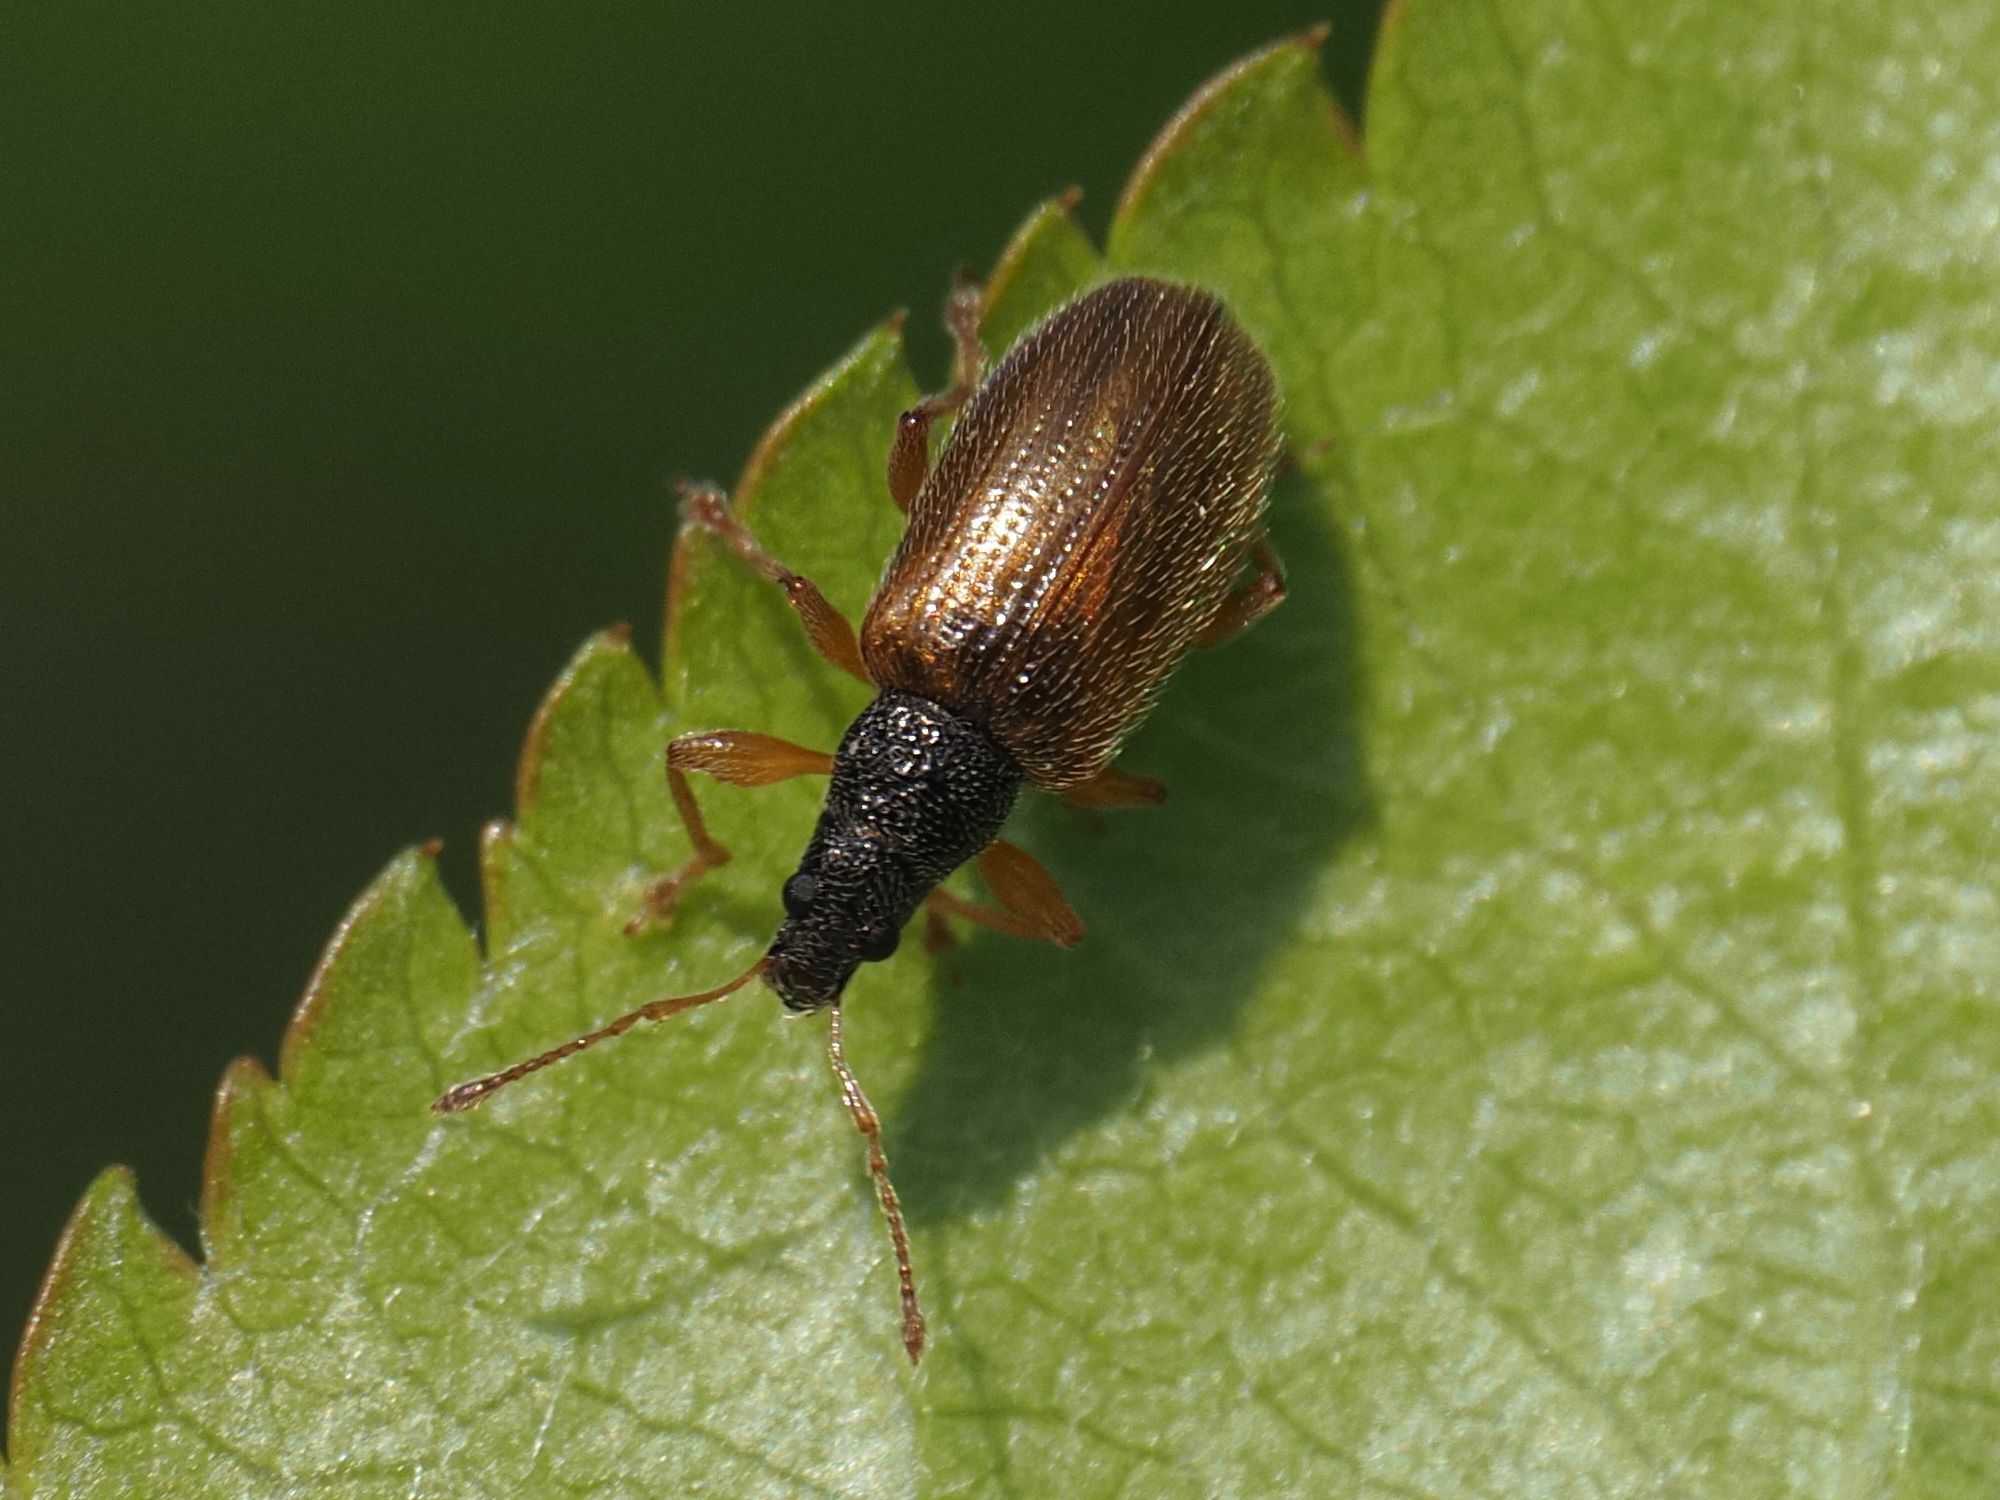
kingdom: Animalia
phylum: Arthropoda
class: Insecta
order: Coleoptera
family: Curculionidae
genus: Phyllobius
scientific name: Phyllobius oblongus
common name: Brown leaf weevil
